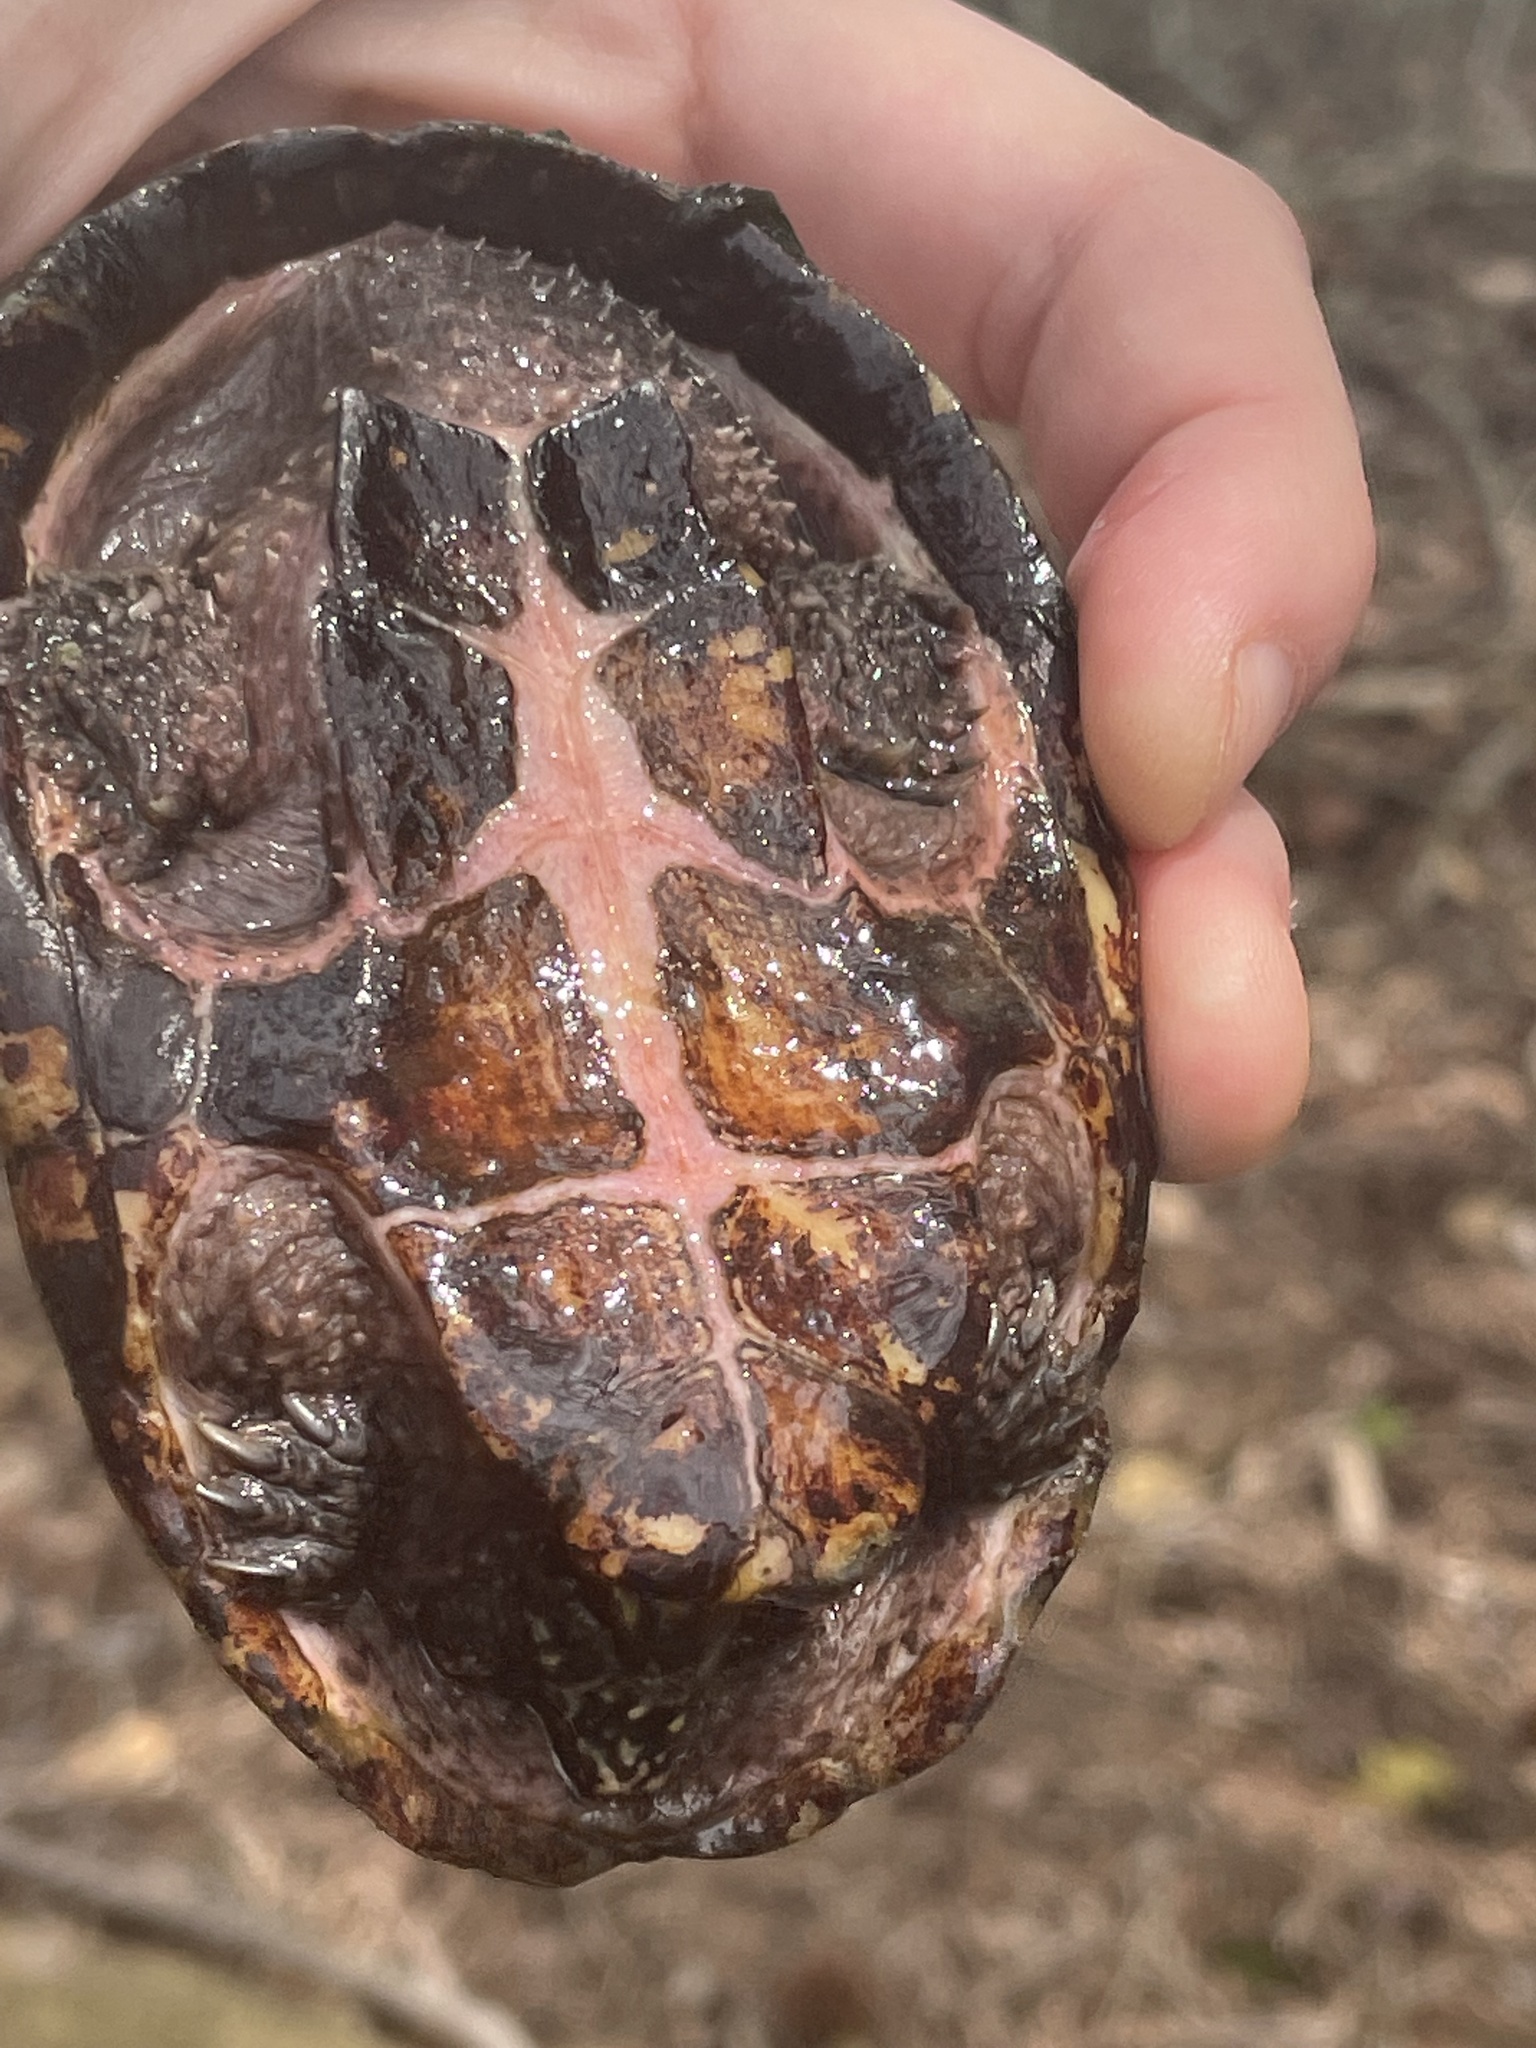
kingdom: Animalia
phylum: Chordata
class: Testudines
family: Kinosternidae
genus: Sternotherus
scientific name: Sternotherus odoratus
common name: Common musk turtle
